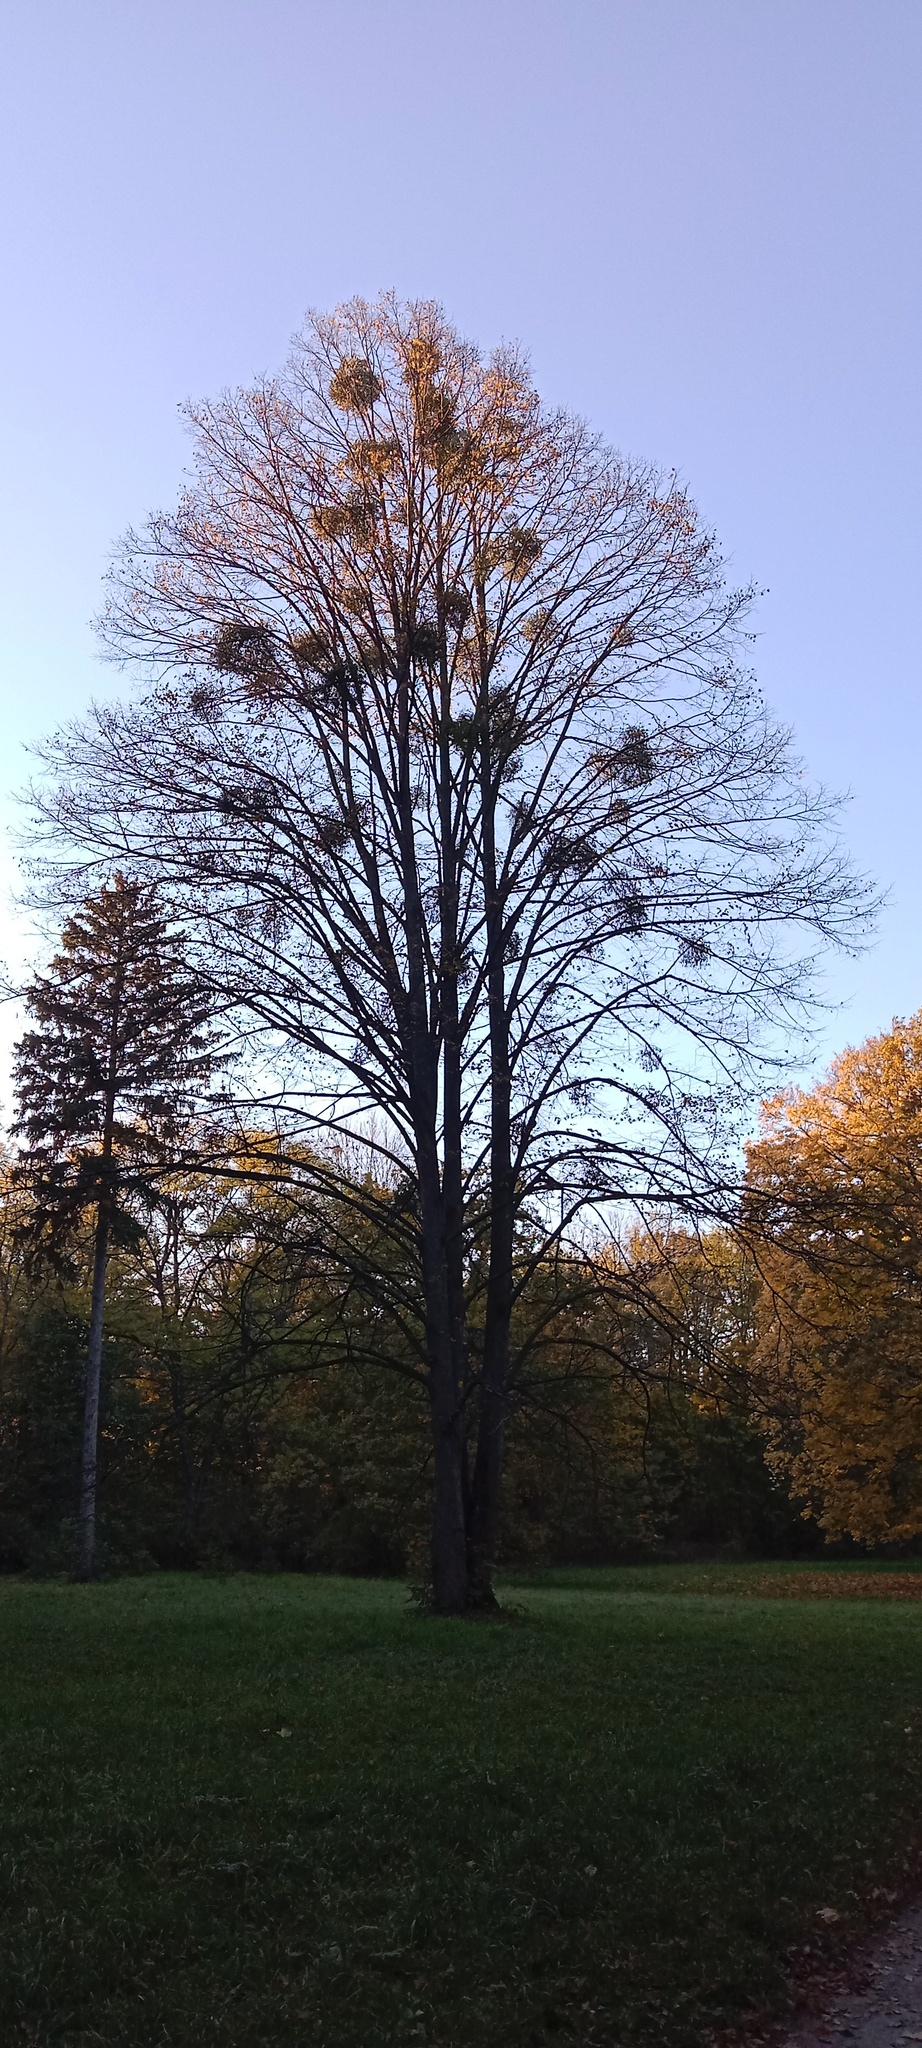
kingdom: Plantae
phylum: Tracheophyta
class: Magnoliopsida
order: Santalales
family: Viscaceae
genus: Viscum
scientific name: Viscum album
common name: Mistletoe
